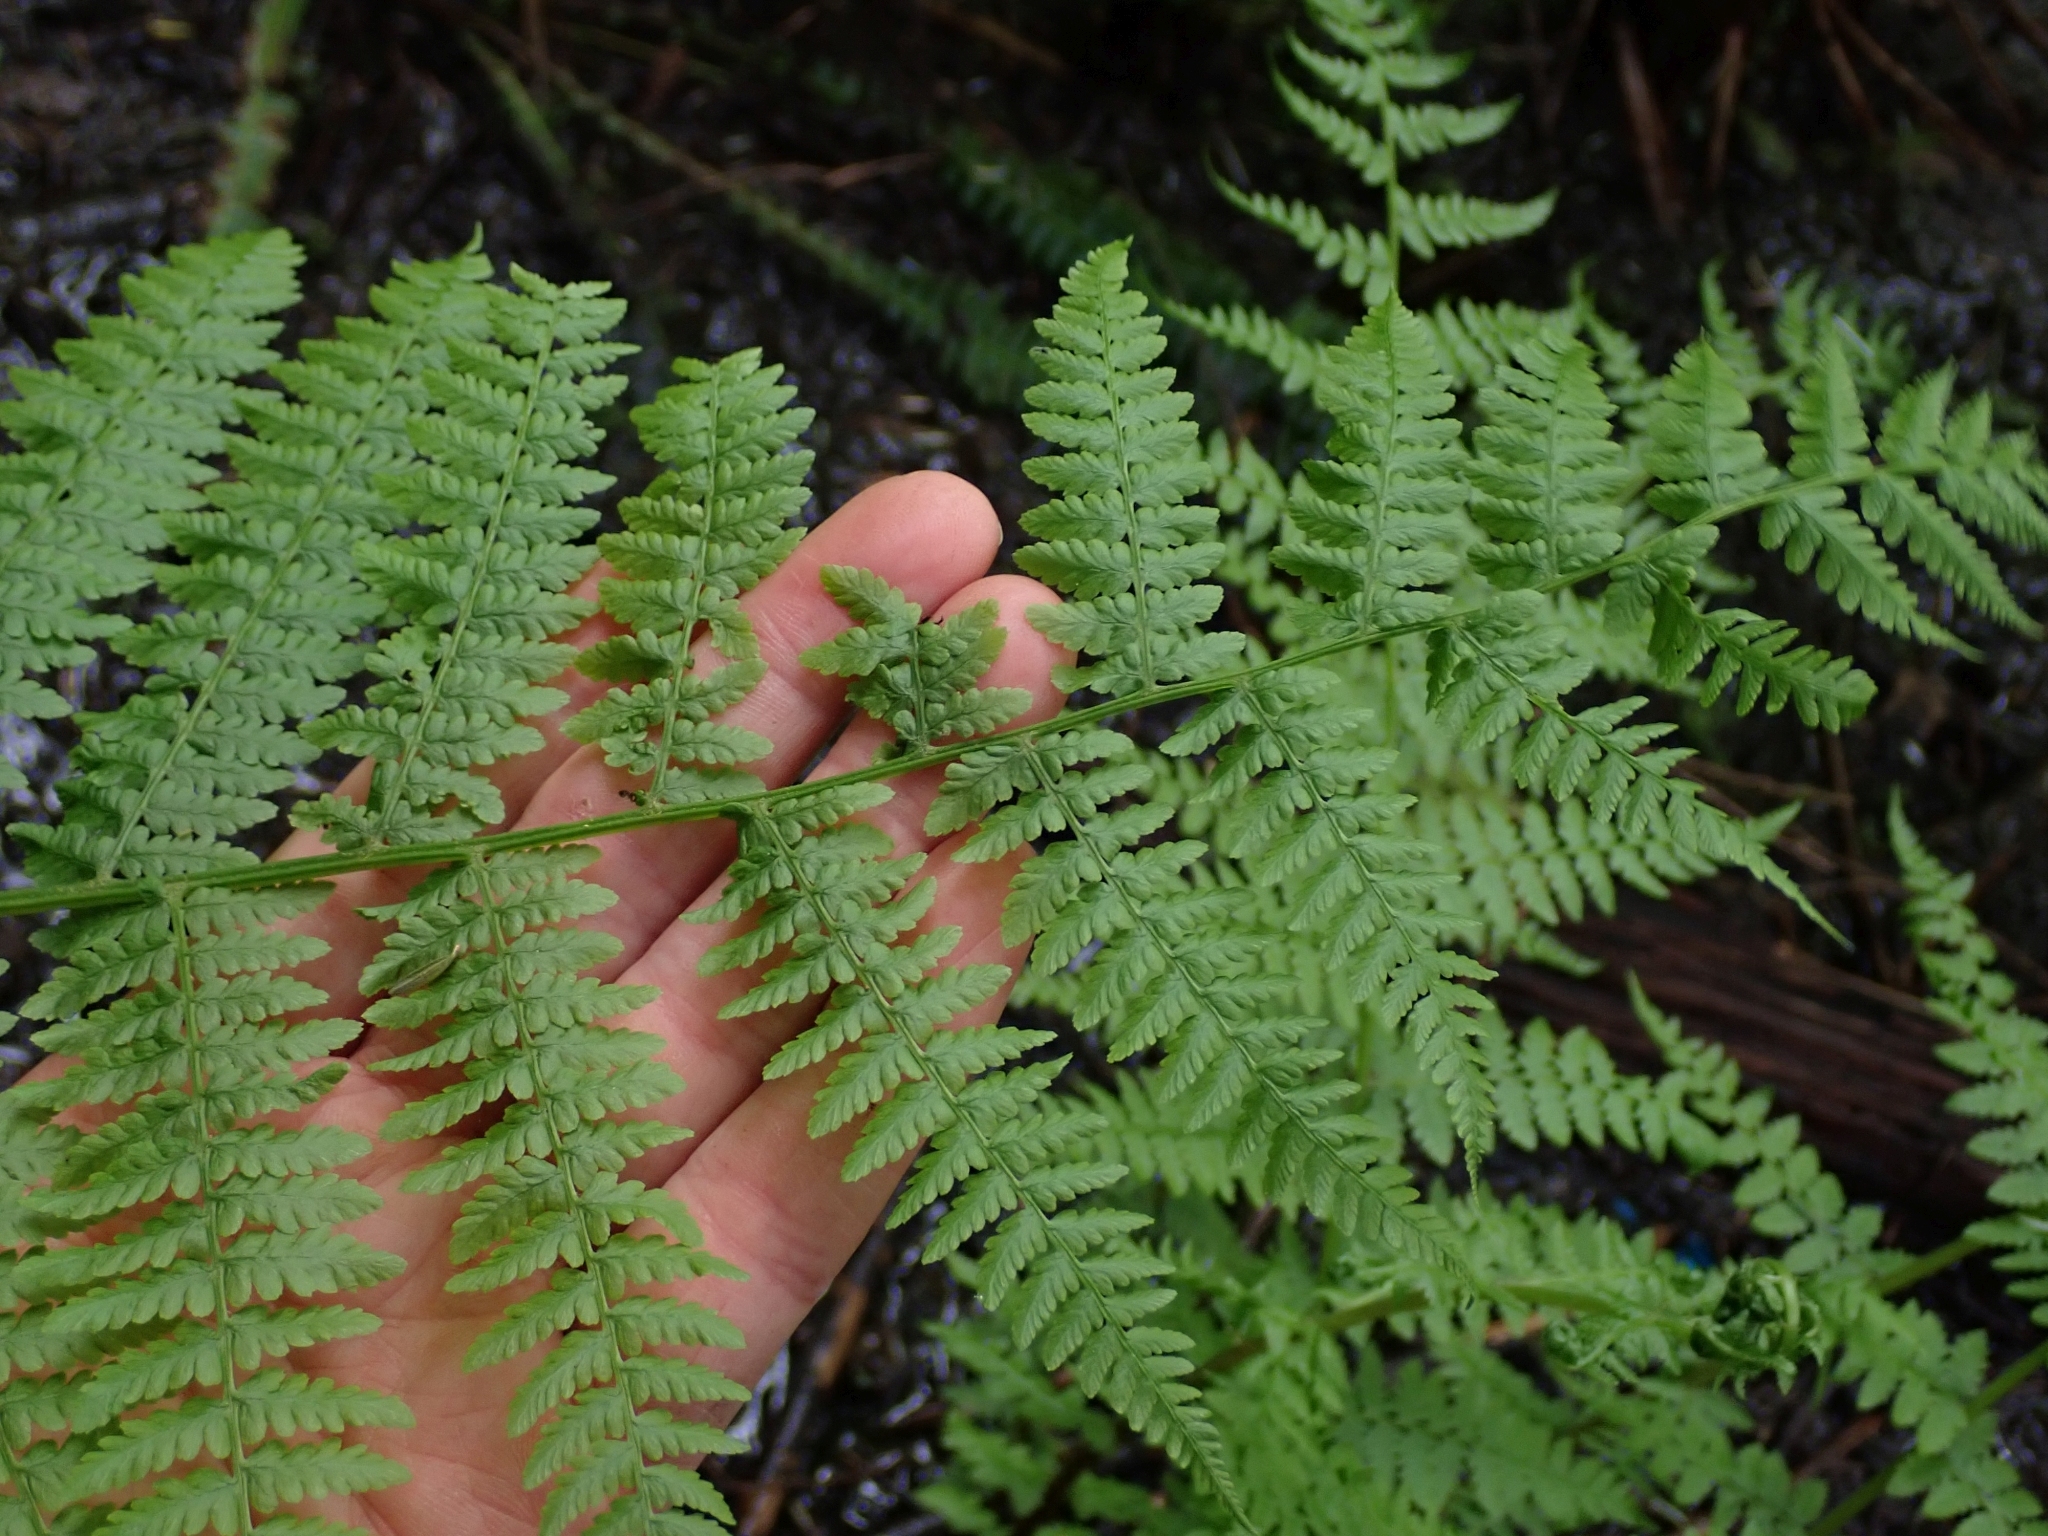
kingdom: Plantae
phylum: Tracheophyta
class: Polypodiopsida
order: Polypodiales
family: Athyriaceae
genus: Athyrium
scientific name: Athyrium filix-femina
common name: Lady fern
